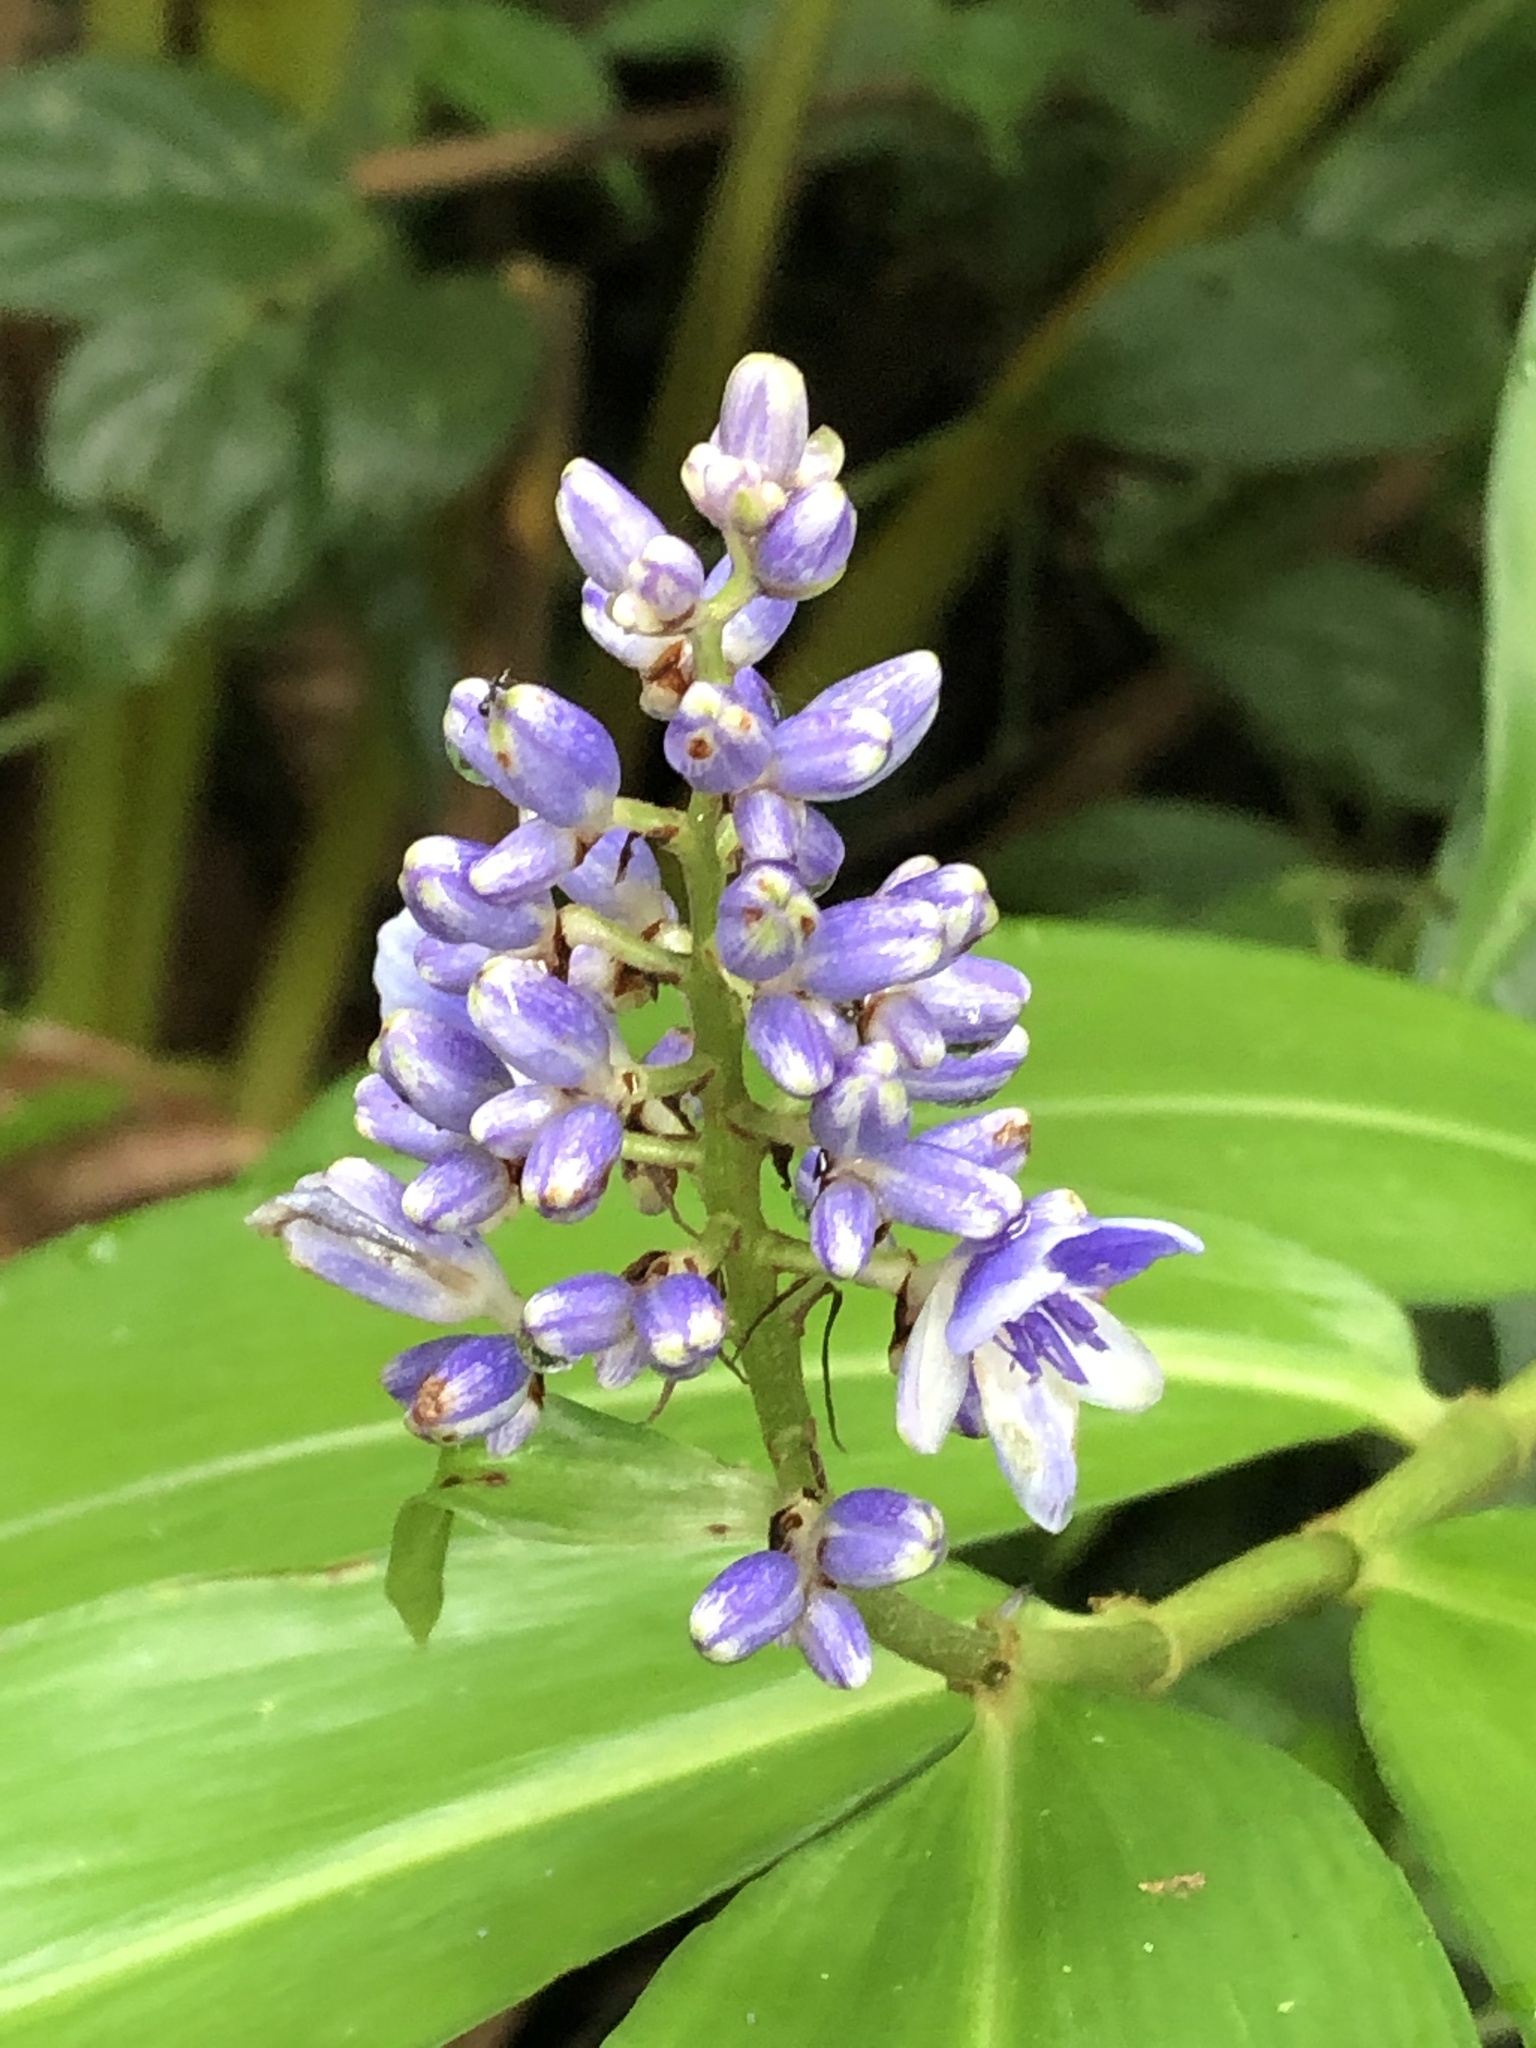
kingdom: Plantae
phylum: Tracheophyta
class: Liliopsida
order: Commelinales
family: Commelinaceae
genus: Dichorisandra
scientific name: Dichorisandra hexandra
